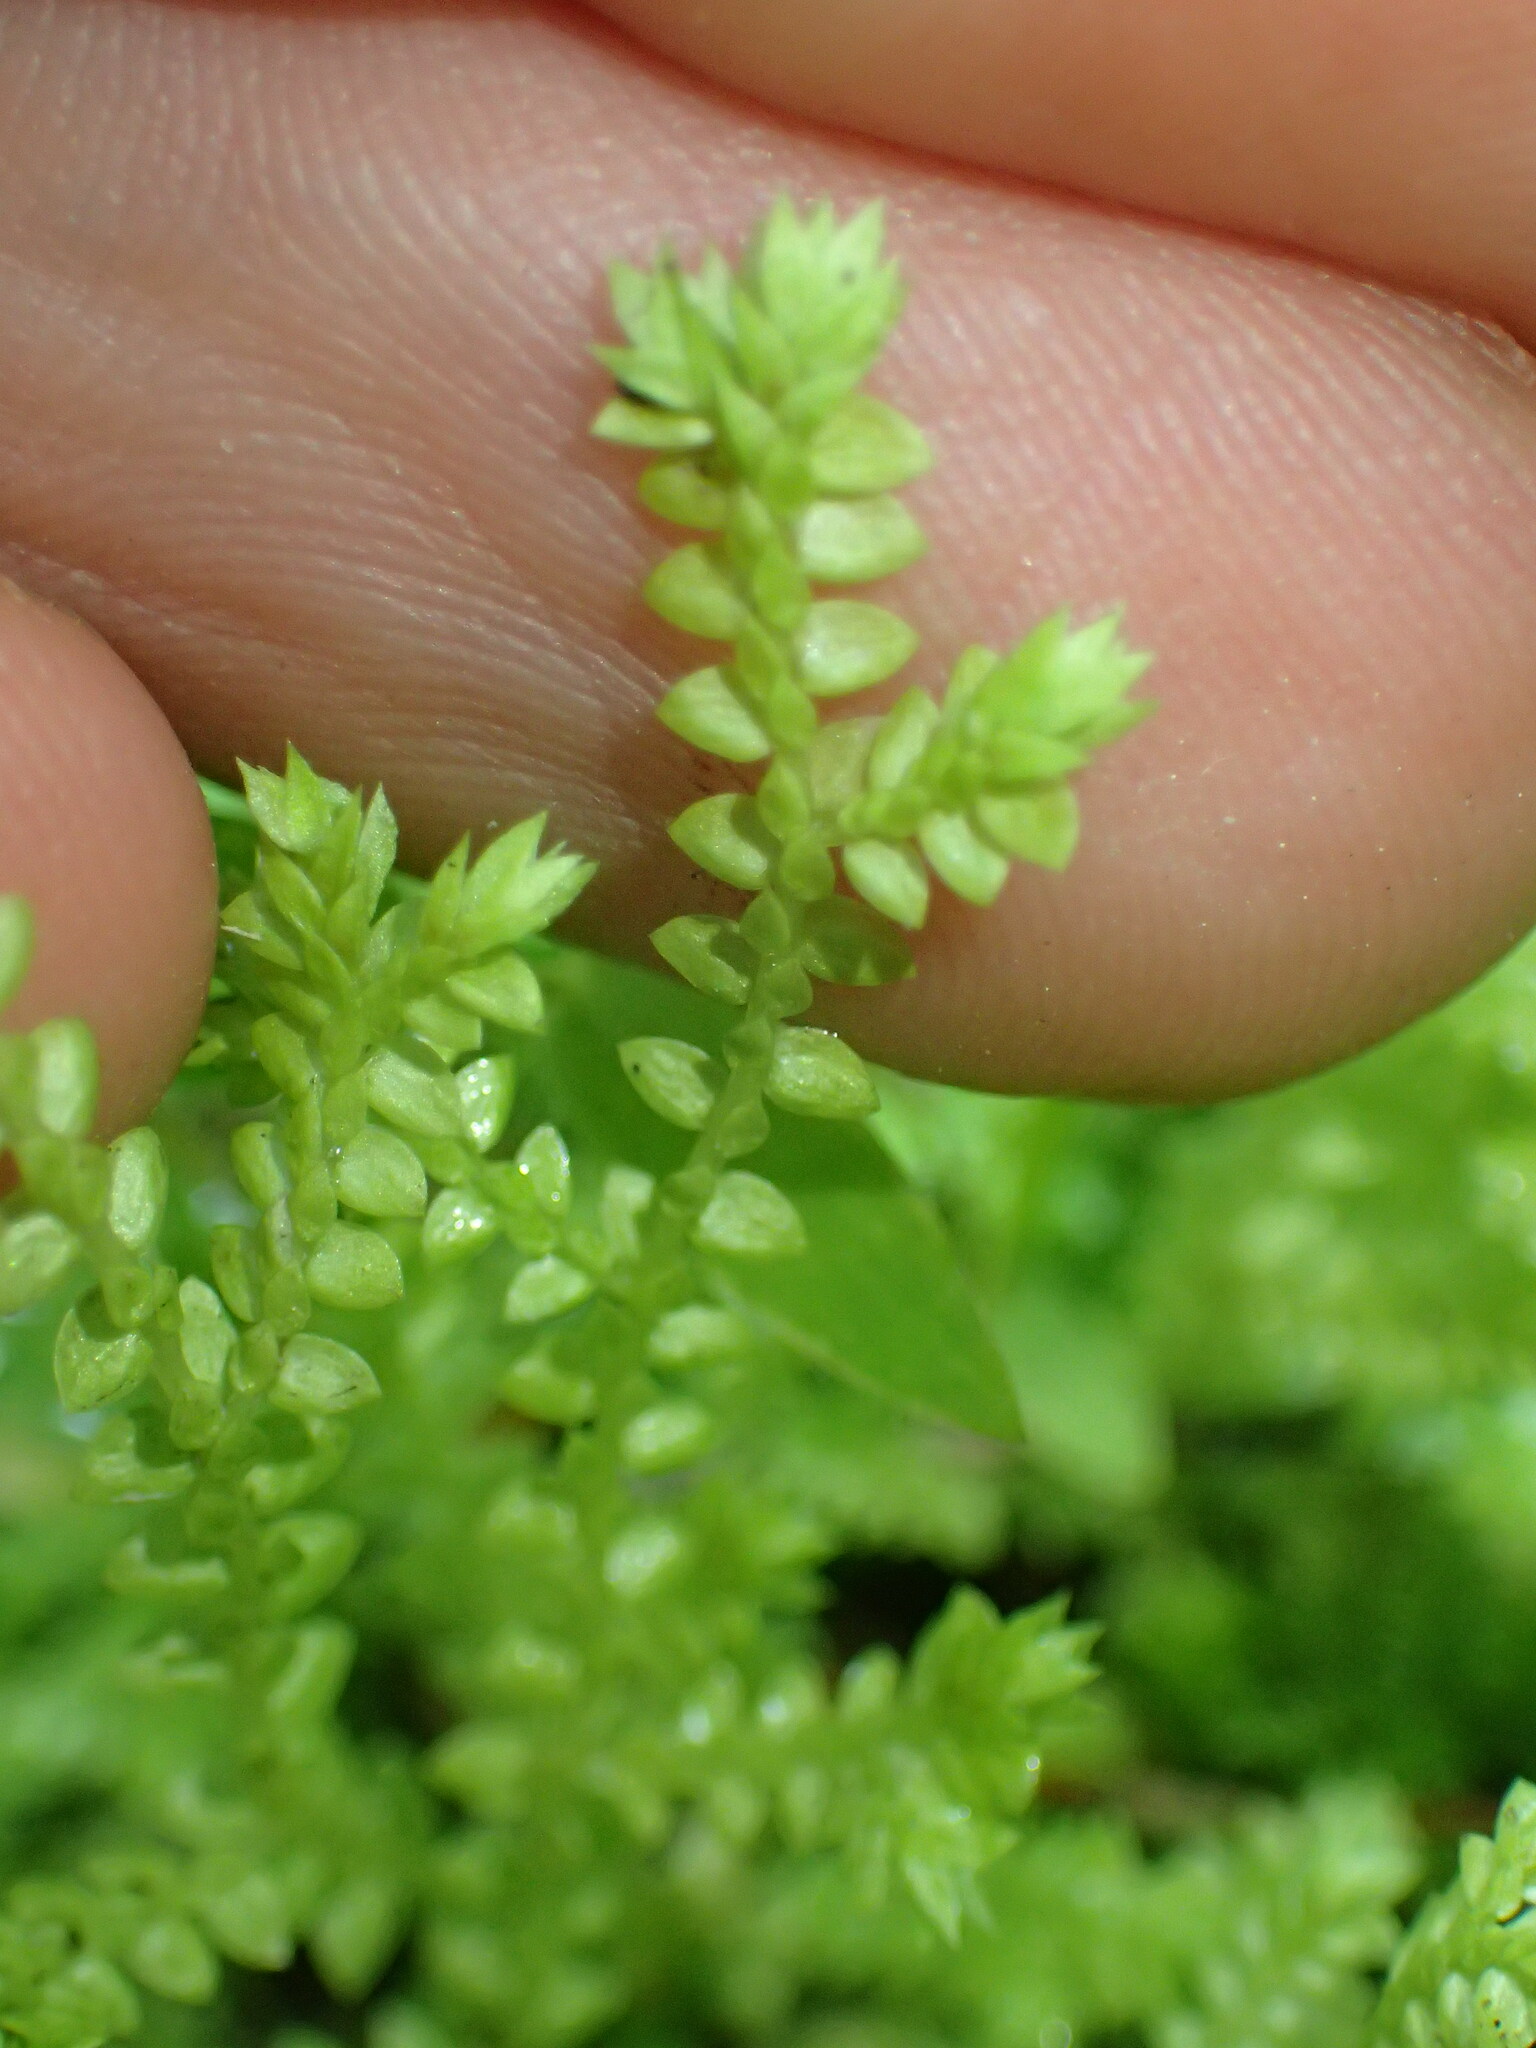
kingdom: Plantae
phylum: Tracheophyta
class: Lycopodiopsida
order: Selaginellales
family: Selaginellaceae
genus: Selaginella
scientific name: Selaginella apoda
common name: Creeping spikemoss
